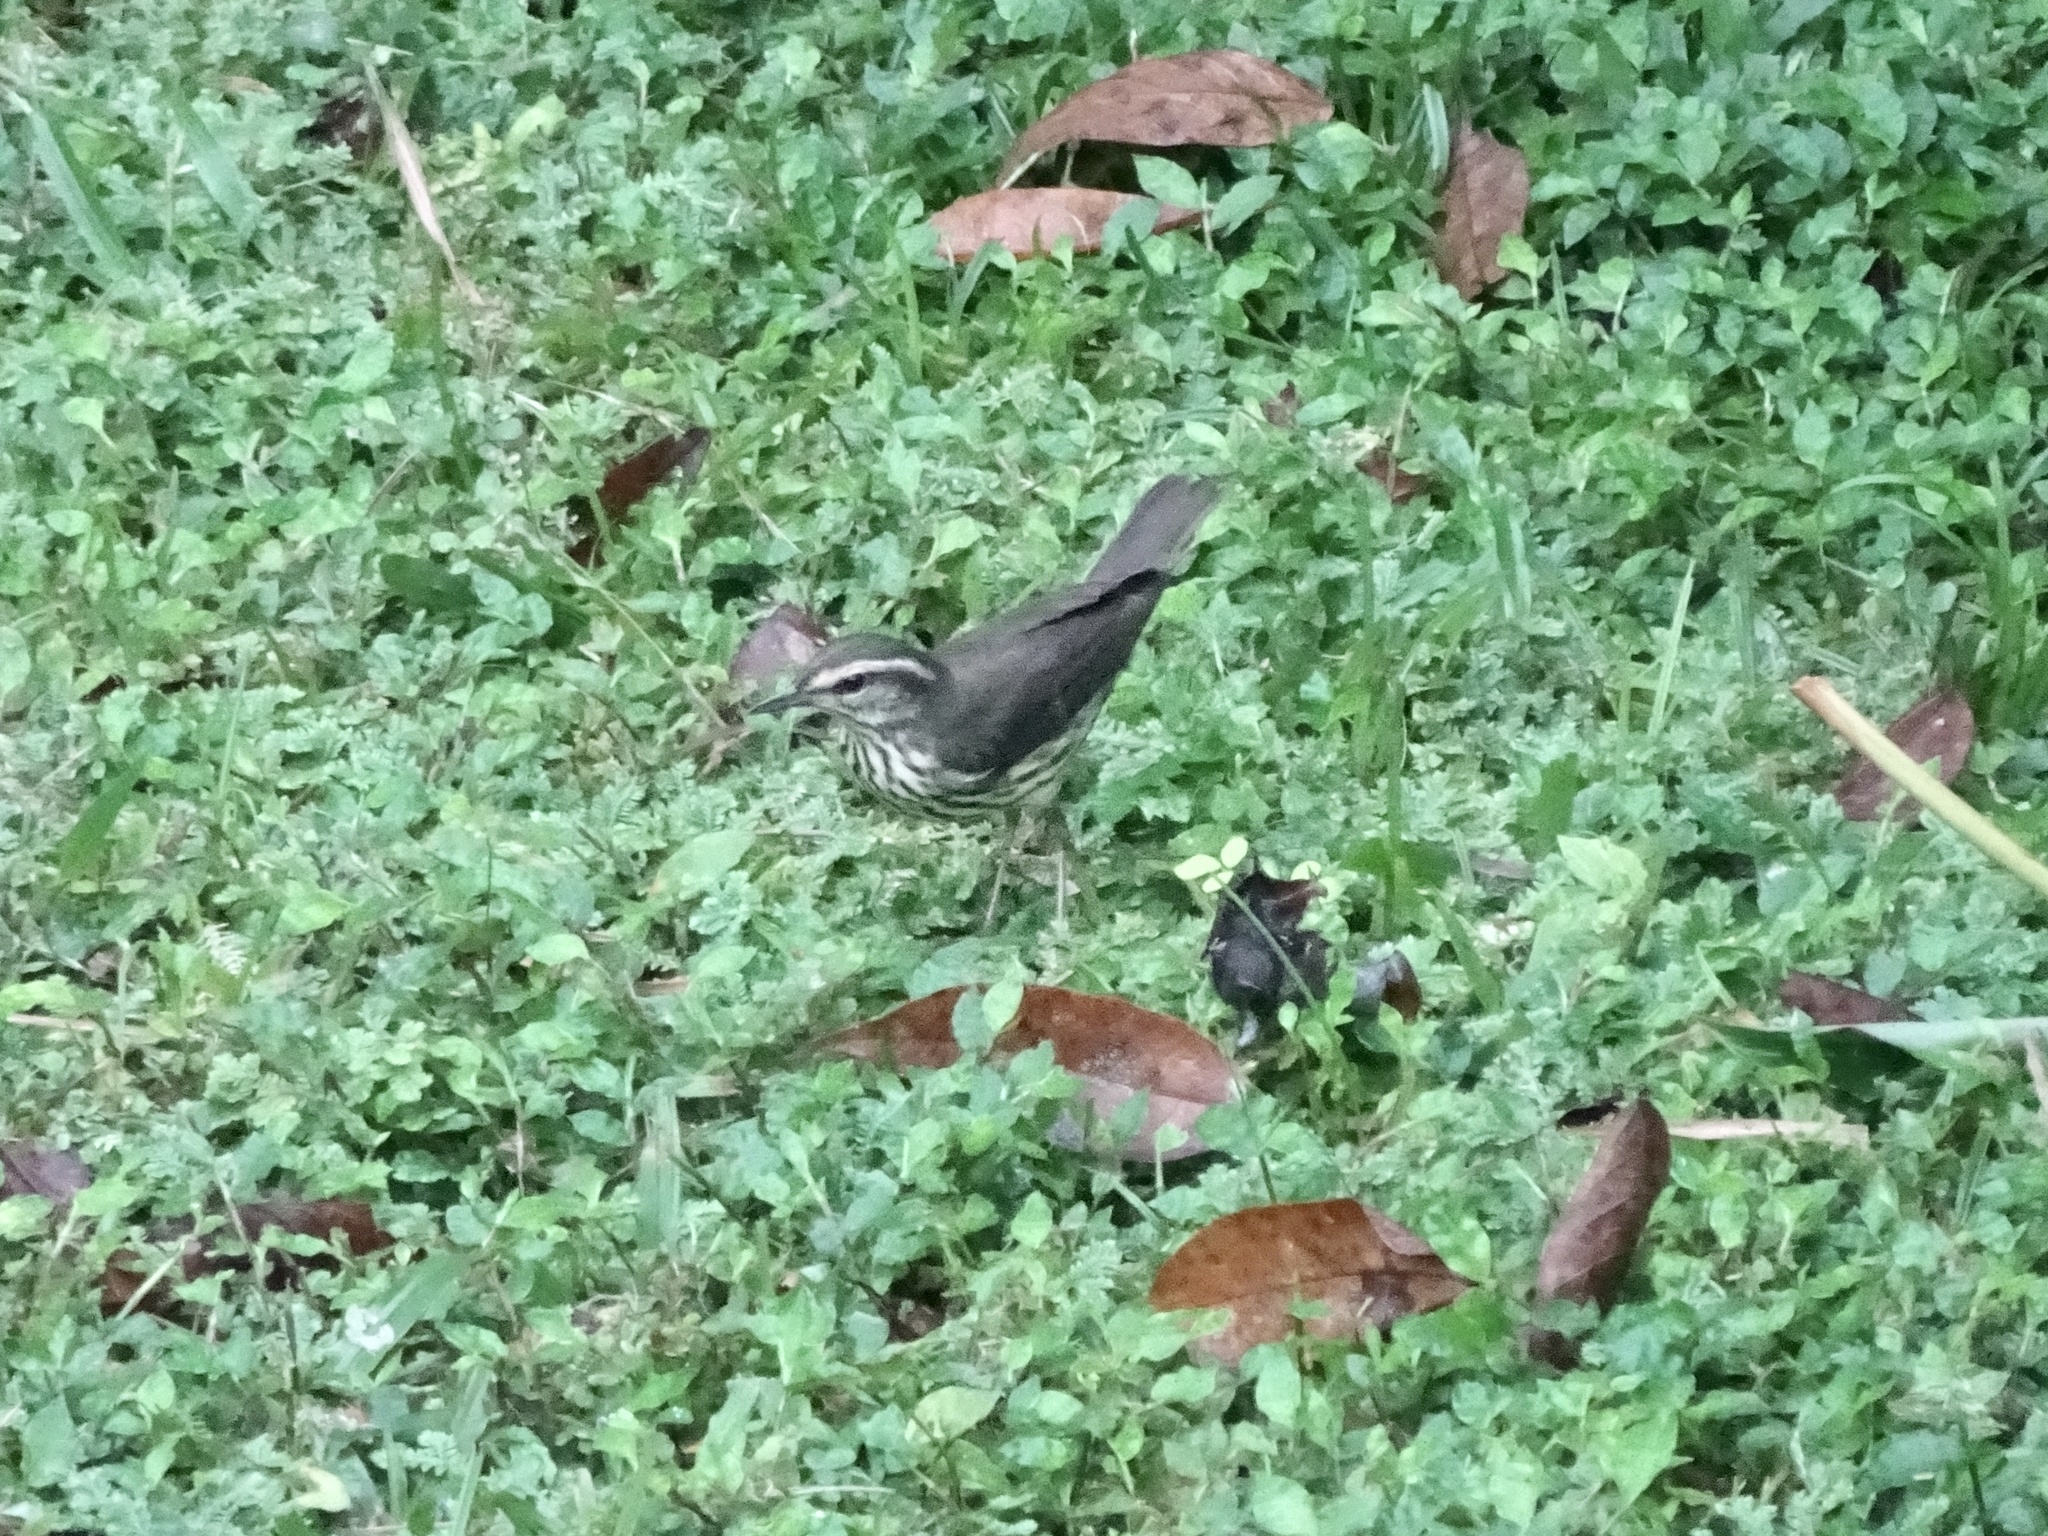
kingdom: Animalia
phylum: Chordata
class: Aves
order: Passeriformes
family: Parulidae
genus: Parkesia
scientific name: Parkesia noveboracensis
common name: Northern waterthrush
